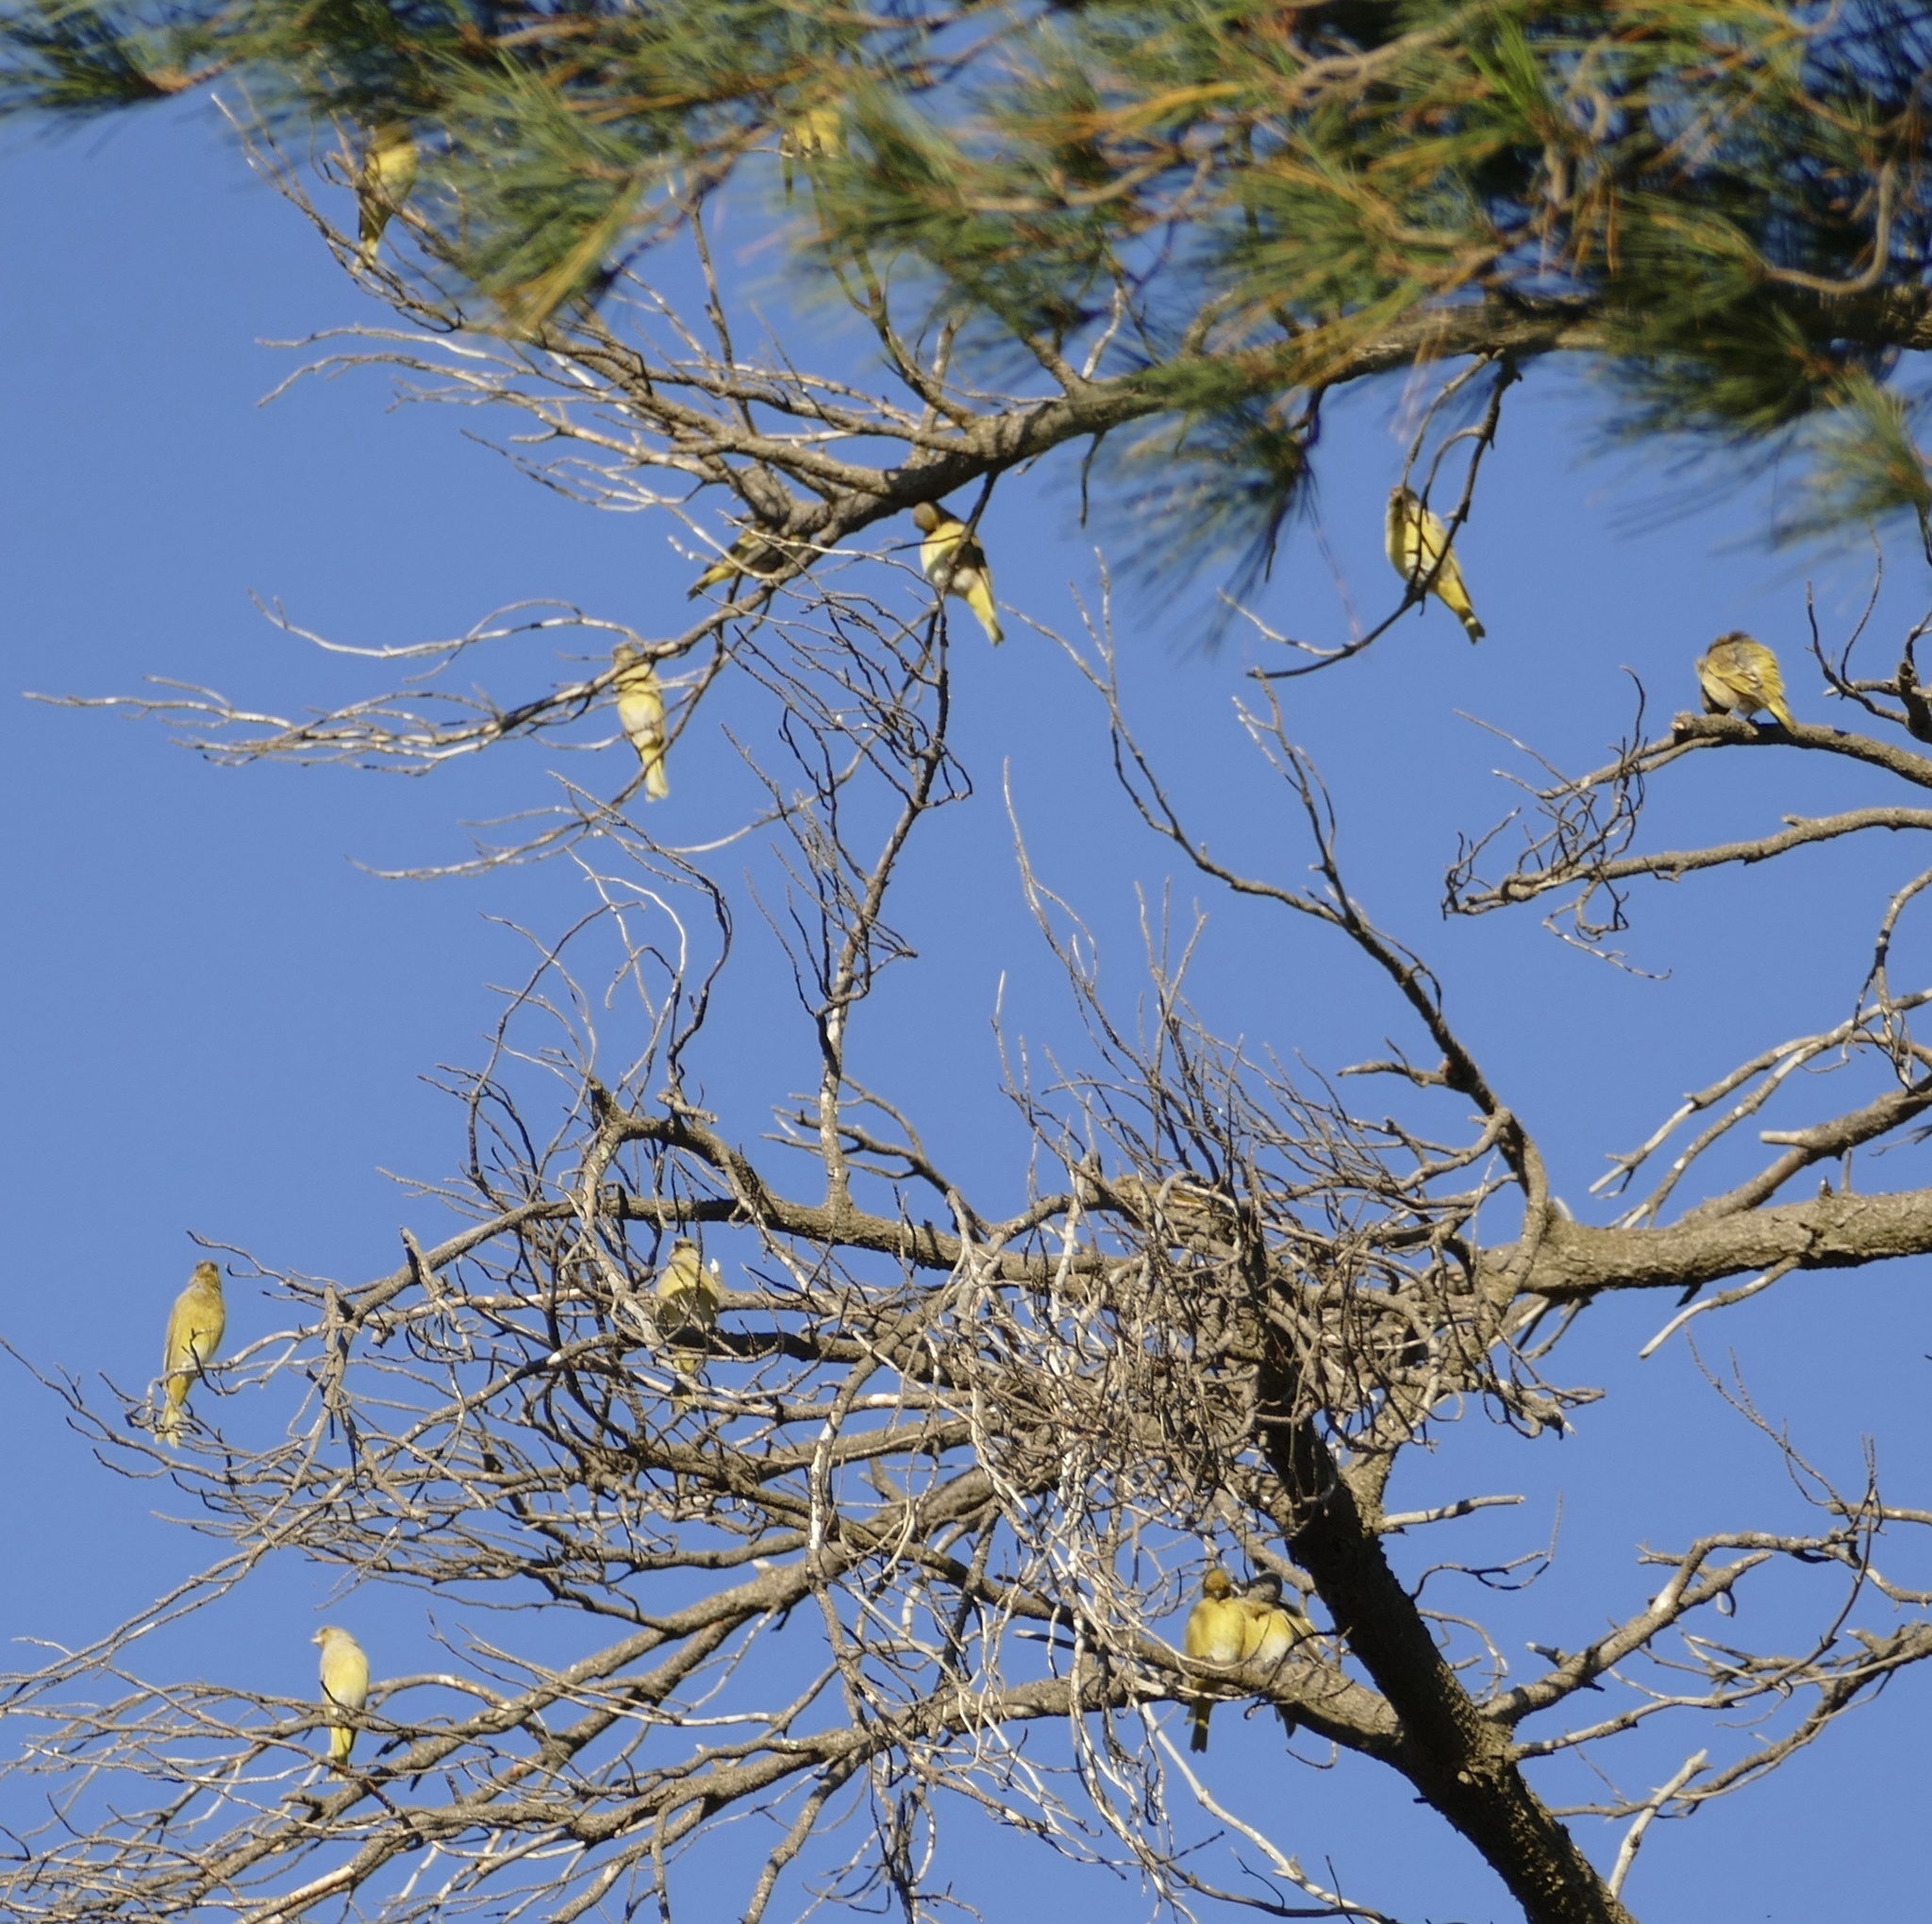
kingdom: Animalia
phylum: Chordata
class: Aves
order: Passeriformes
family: Fringillidae
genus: Serinus
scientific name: Serinus canicollis
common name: Cape canary
